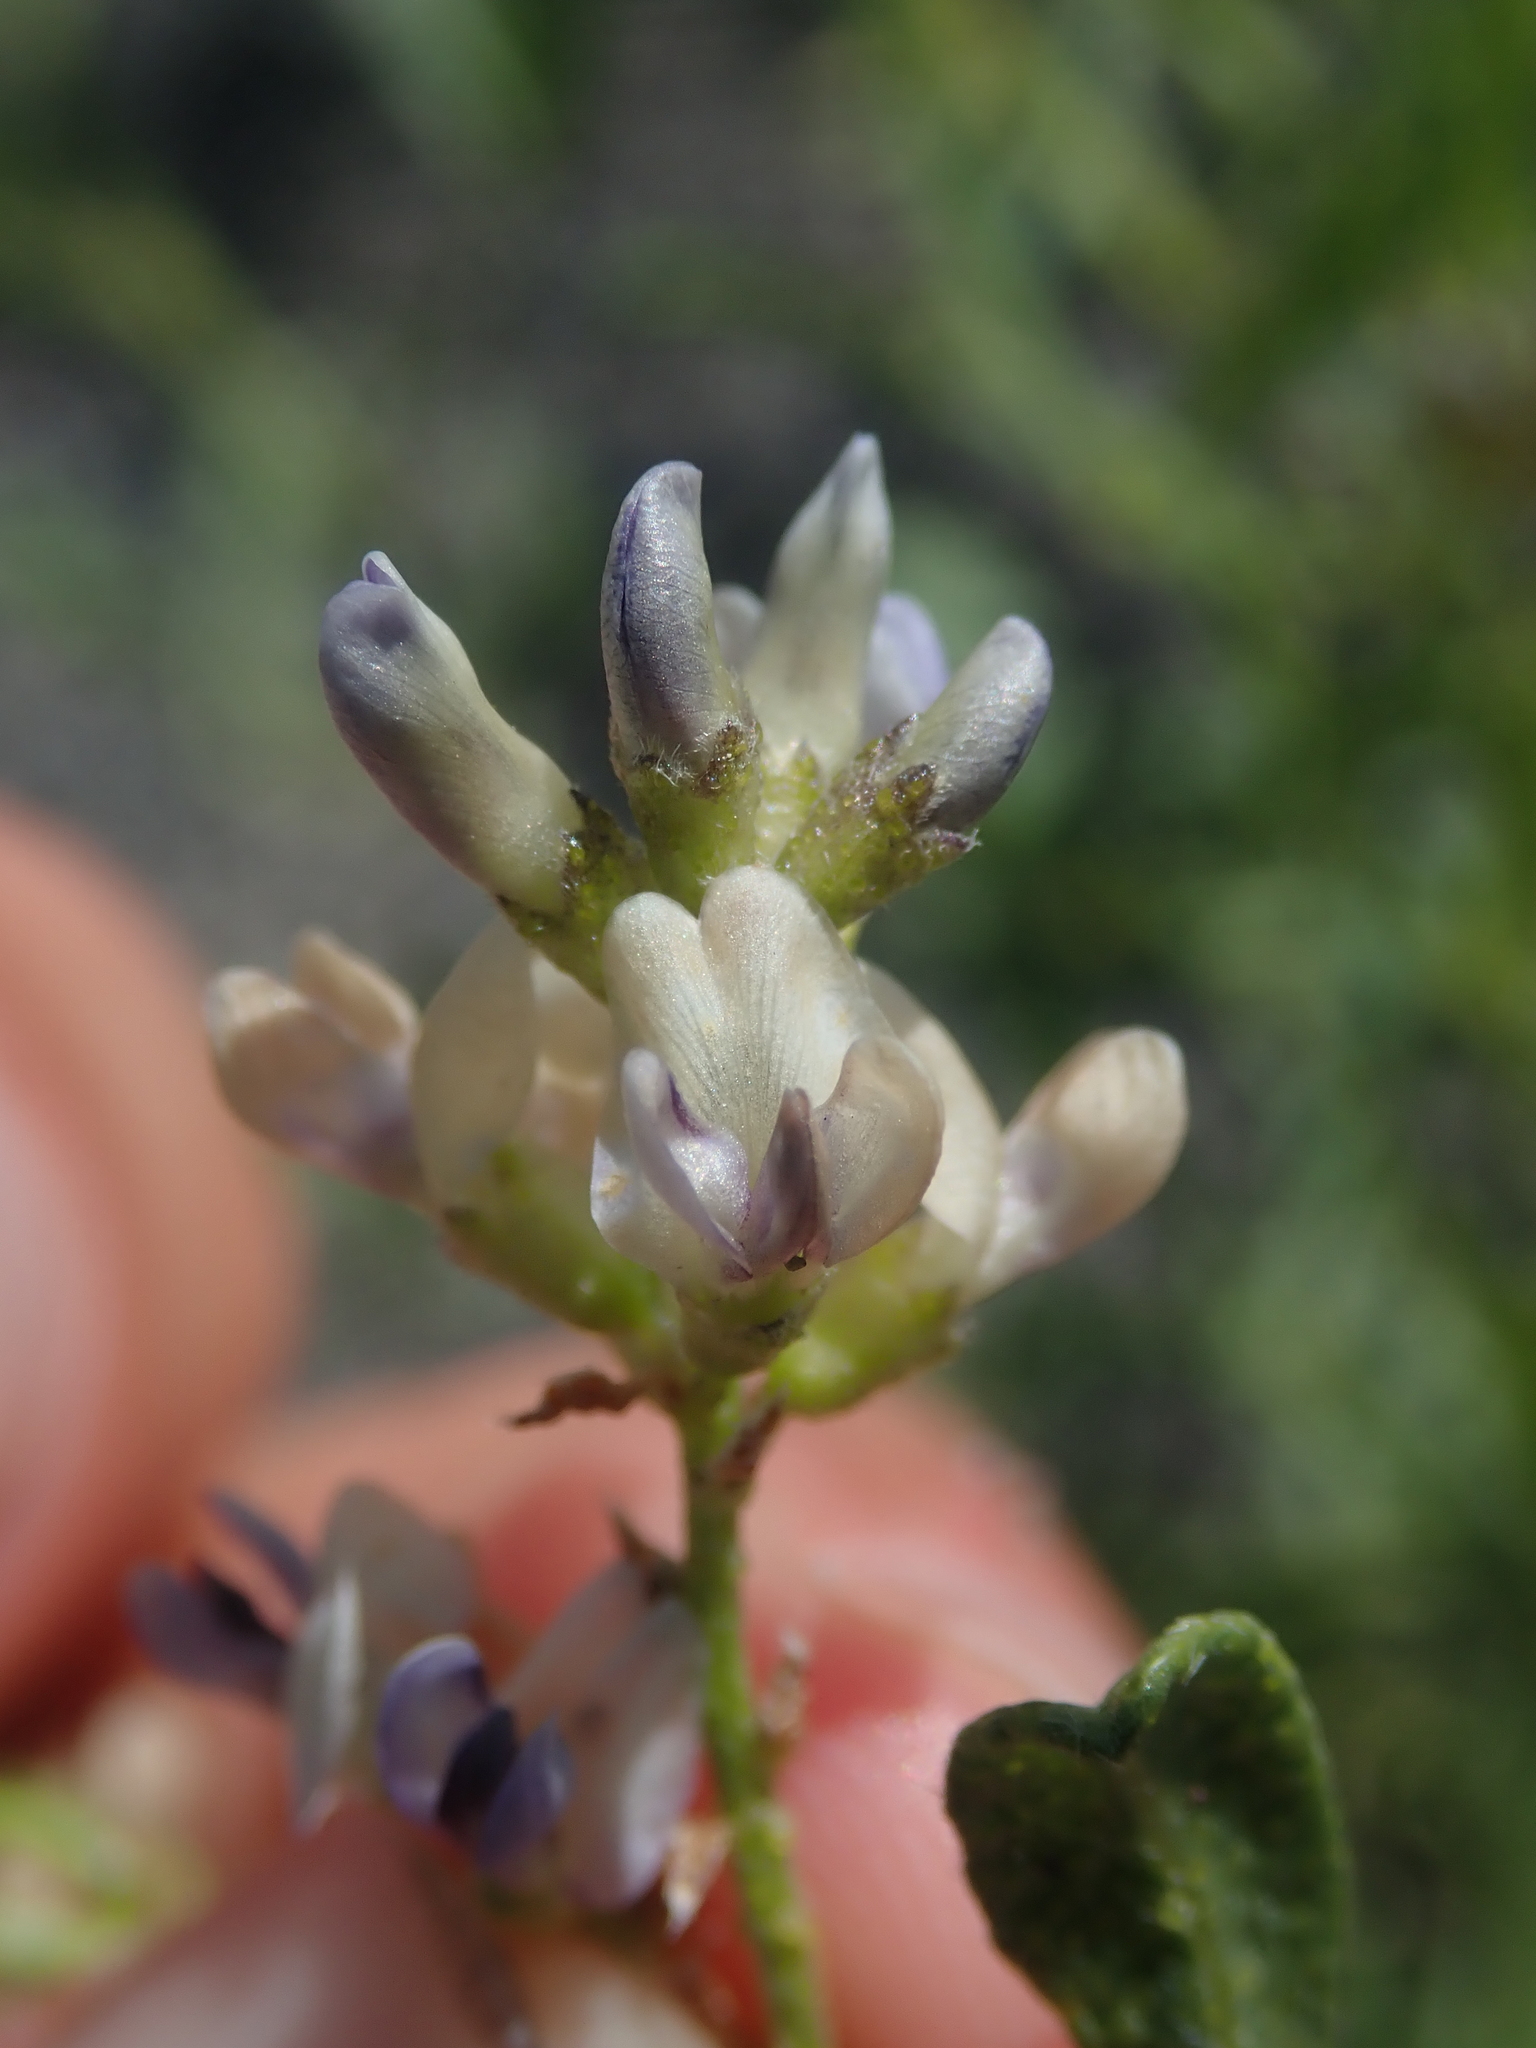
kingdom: Plantae
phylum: Tracheophyta
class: Magnoliopsida
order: Fabales
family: Fabaceae
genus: Ladeania
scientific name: Ladeania lanceolata
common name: Dune scurf-pea
